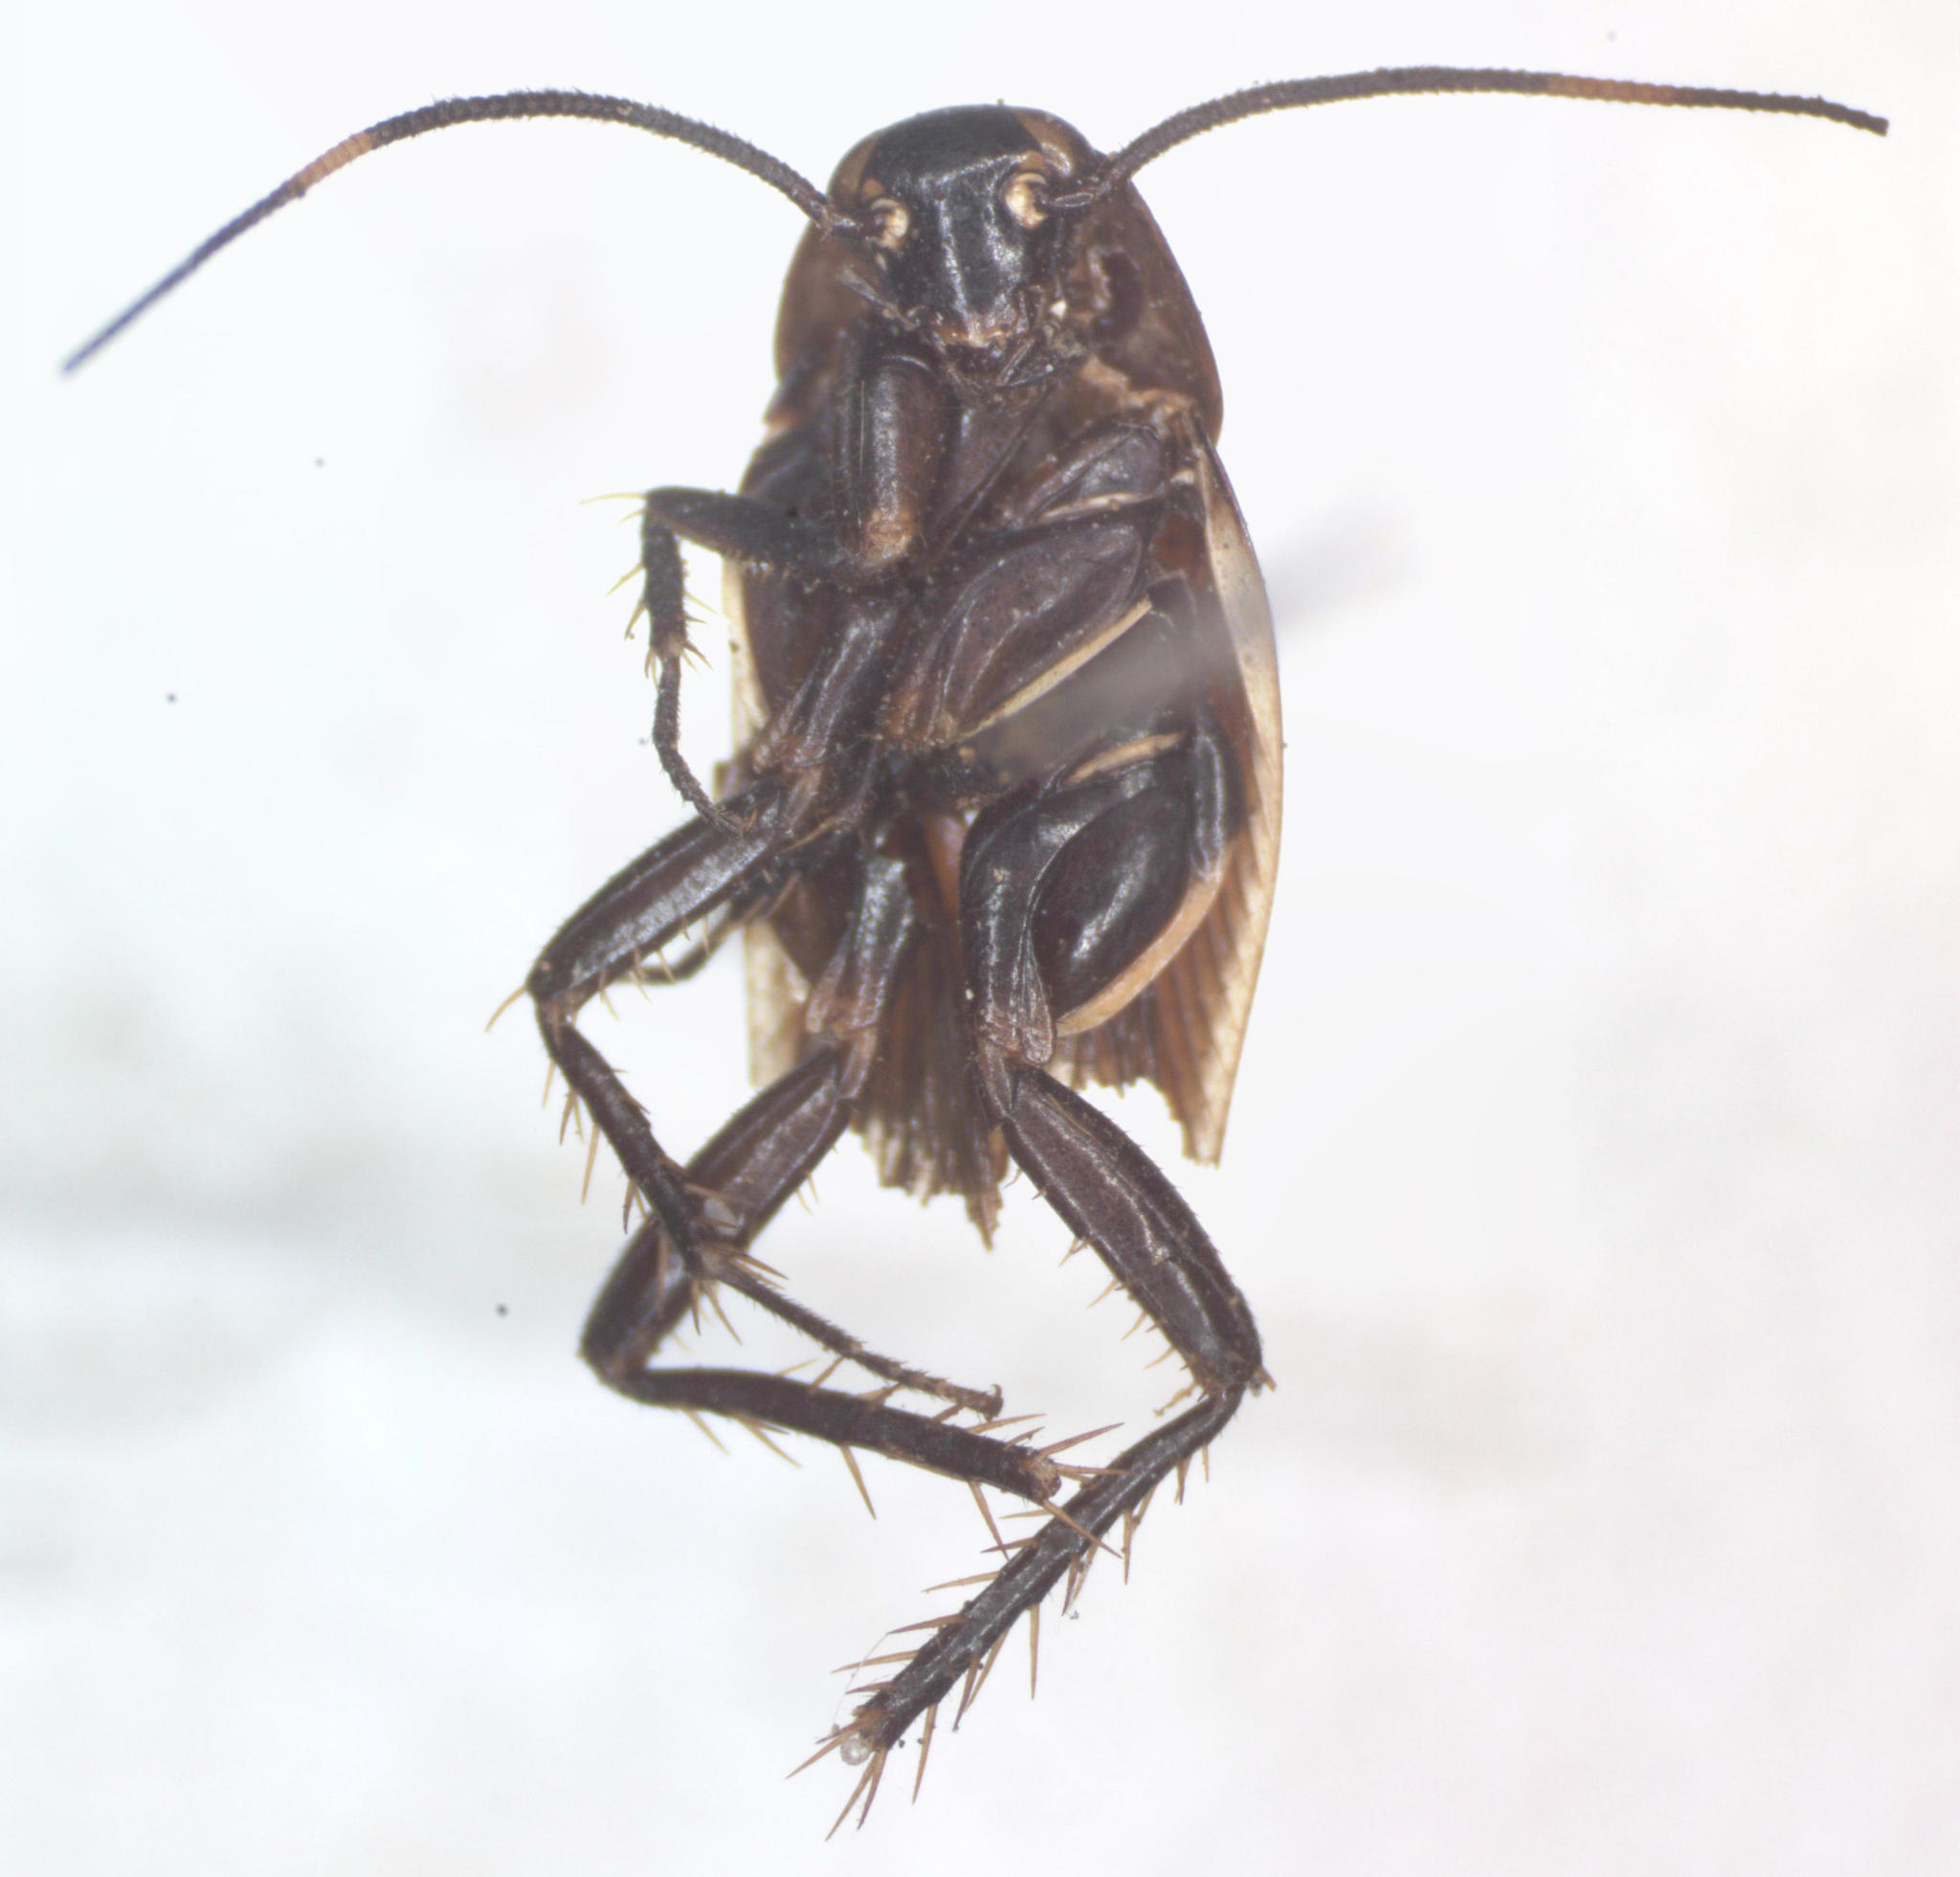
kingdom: Animalia
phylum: Arthropoda
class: Insecta
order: Blattodea
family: Ectobiidae
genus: Pseudomops
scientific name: Pseudomops cinctus
